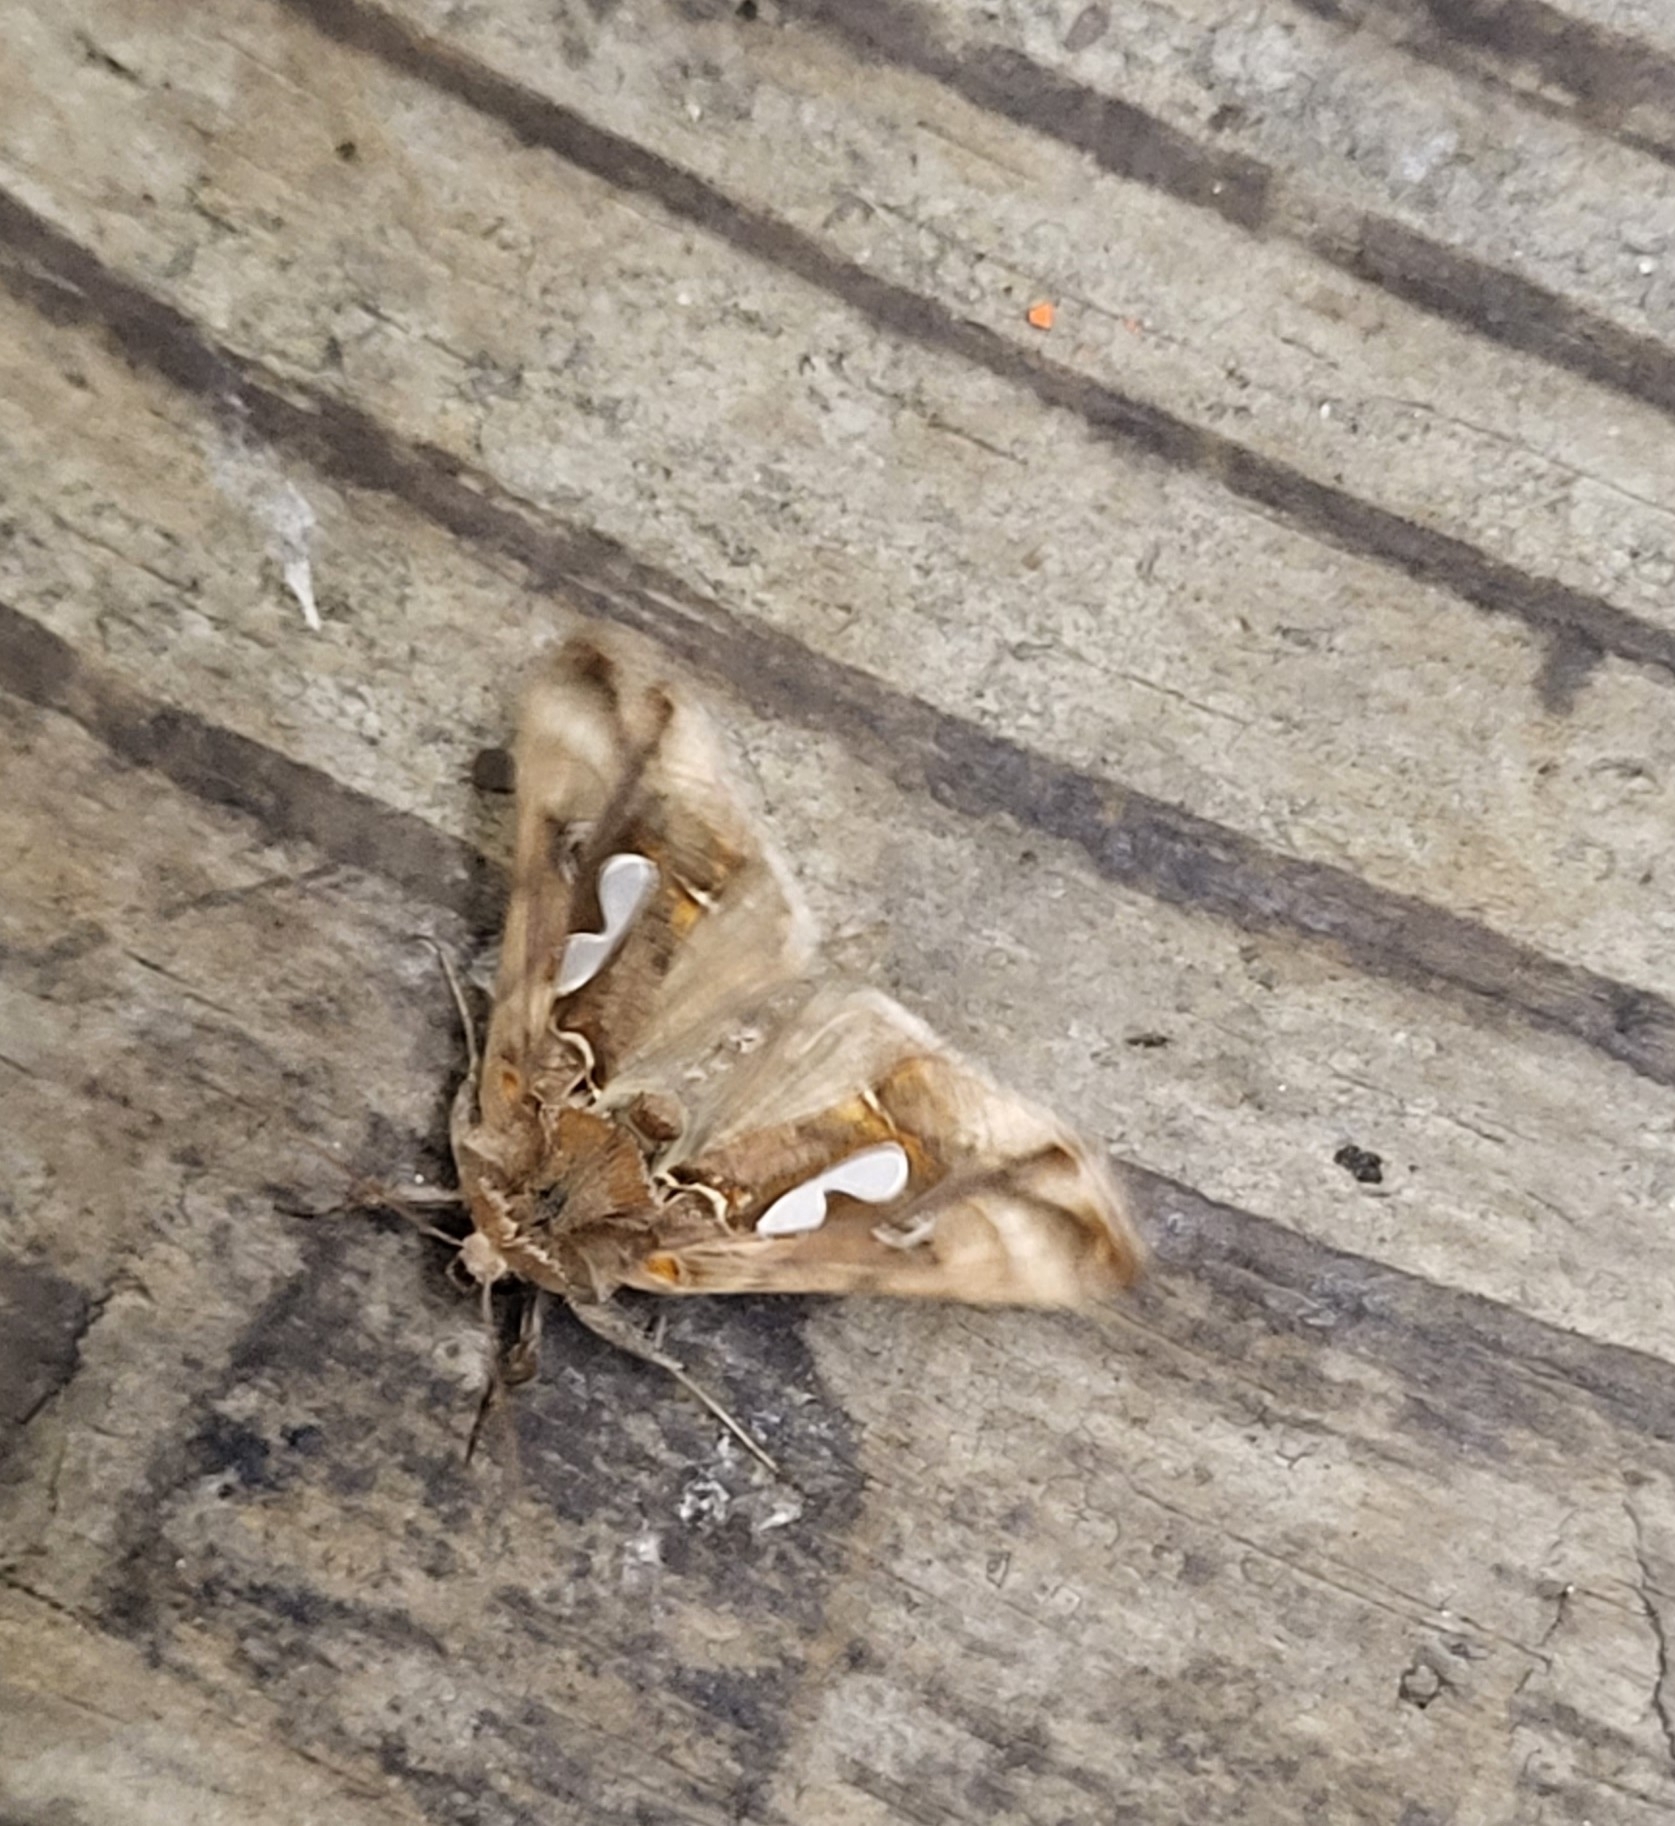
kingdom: Animalia
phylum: Arthropoda
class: Insecta
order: Lepidoptera
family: Noctuidae
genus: Megalographa
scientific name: Megalographa biloba
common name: Cutworm
